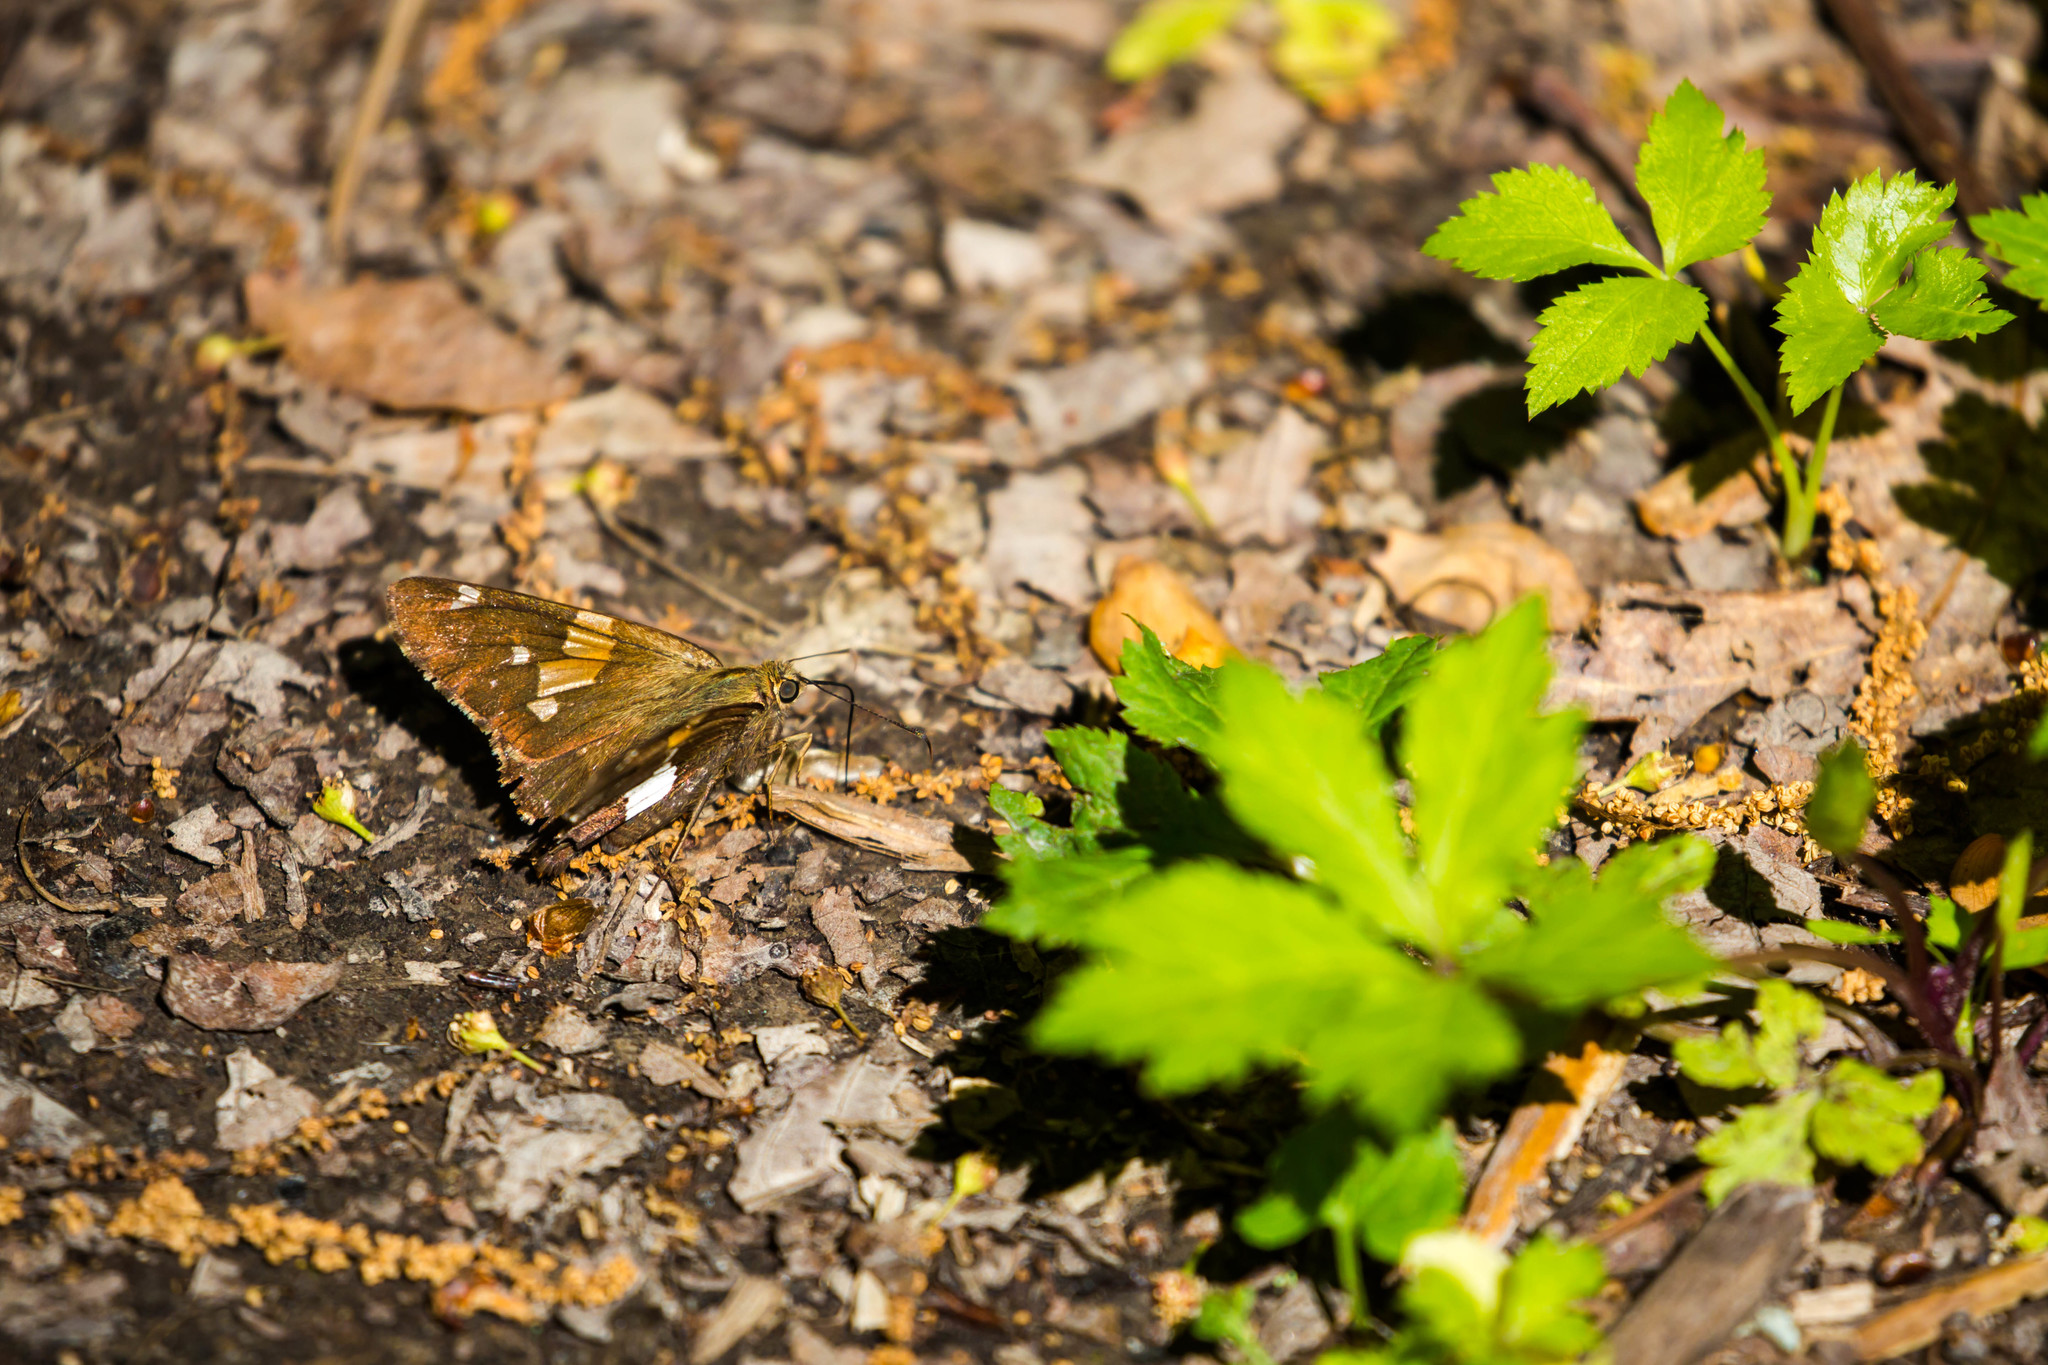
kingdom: Animalia
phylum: Arthropoda
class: Insecta
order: Lepidoptera
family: Hesperiidae
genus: Epargyreus
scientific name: Epargyreus clarus
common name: Silver-spotted skipper
